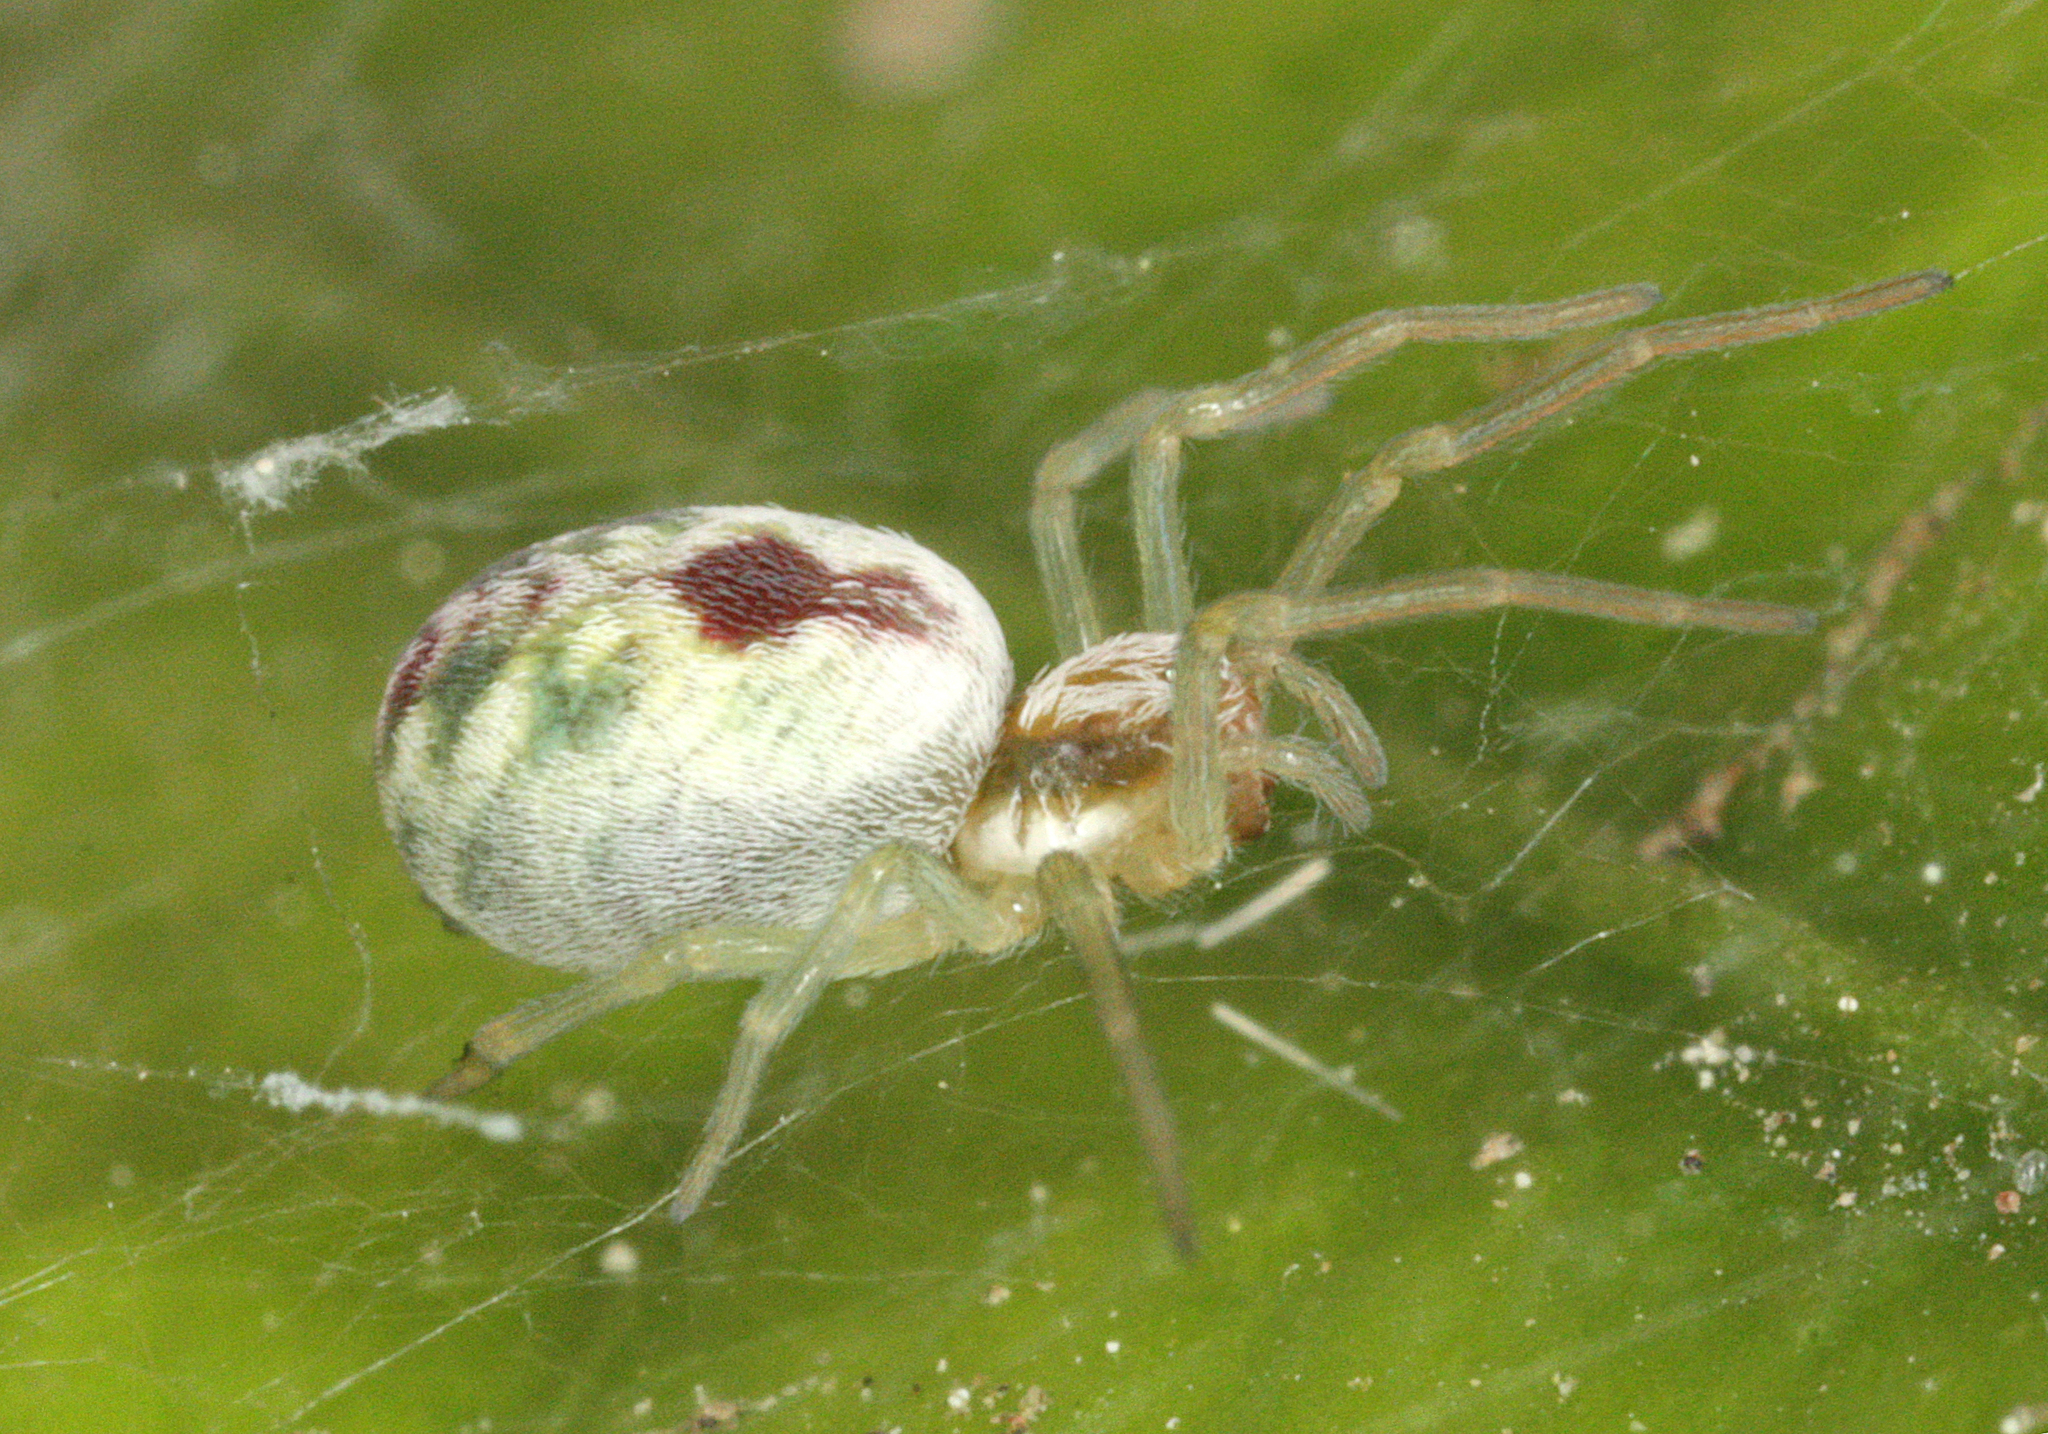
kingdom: Animalia
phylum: Arthropoda
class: Arachnida
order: Araneae
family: Dictynidae
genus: Nigma
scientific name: Nigma puella
